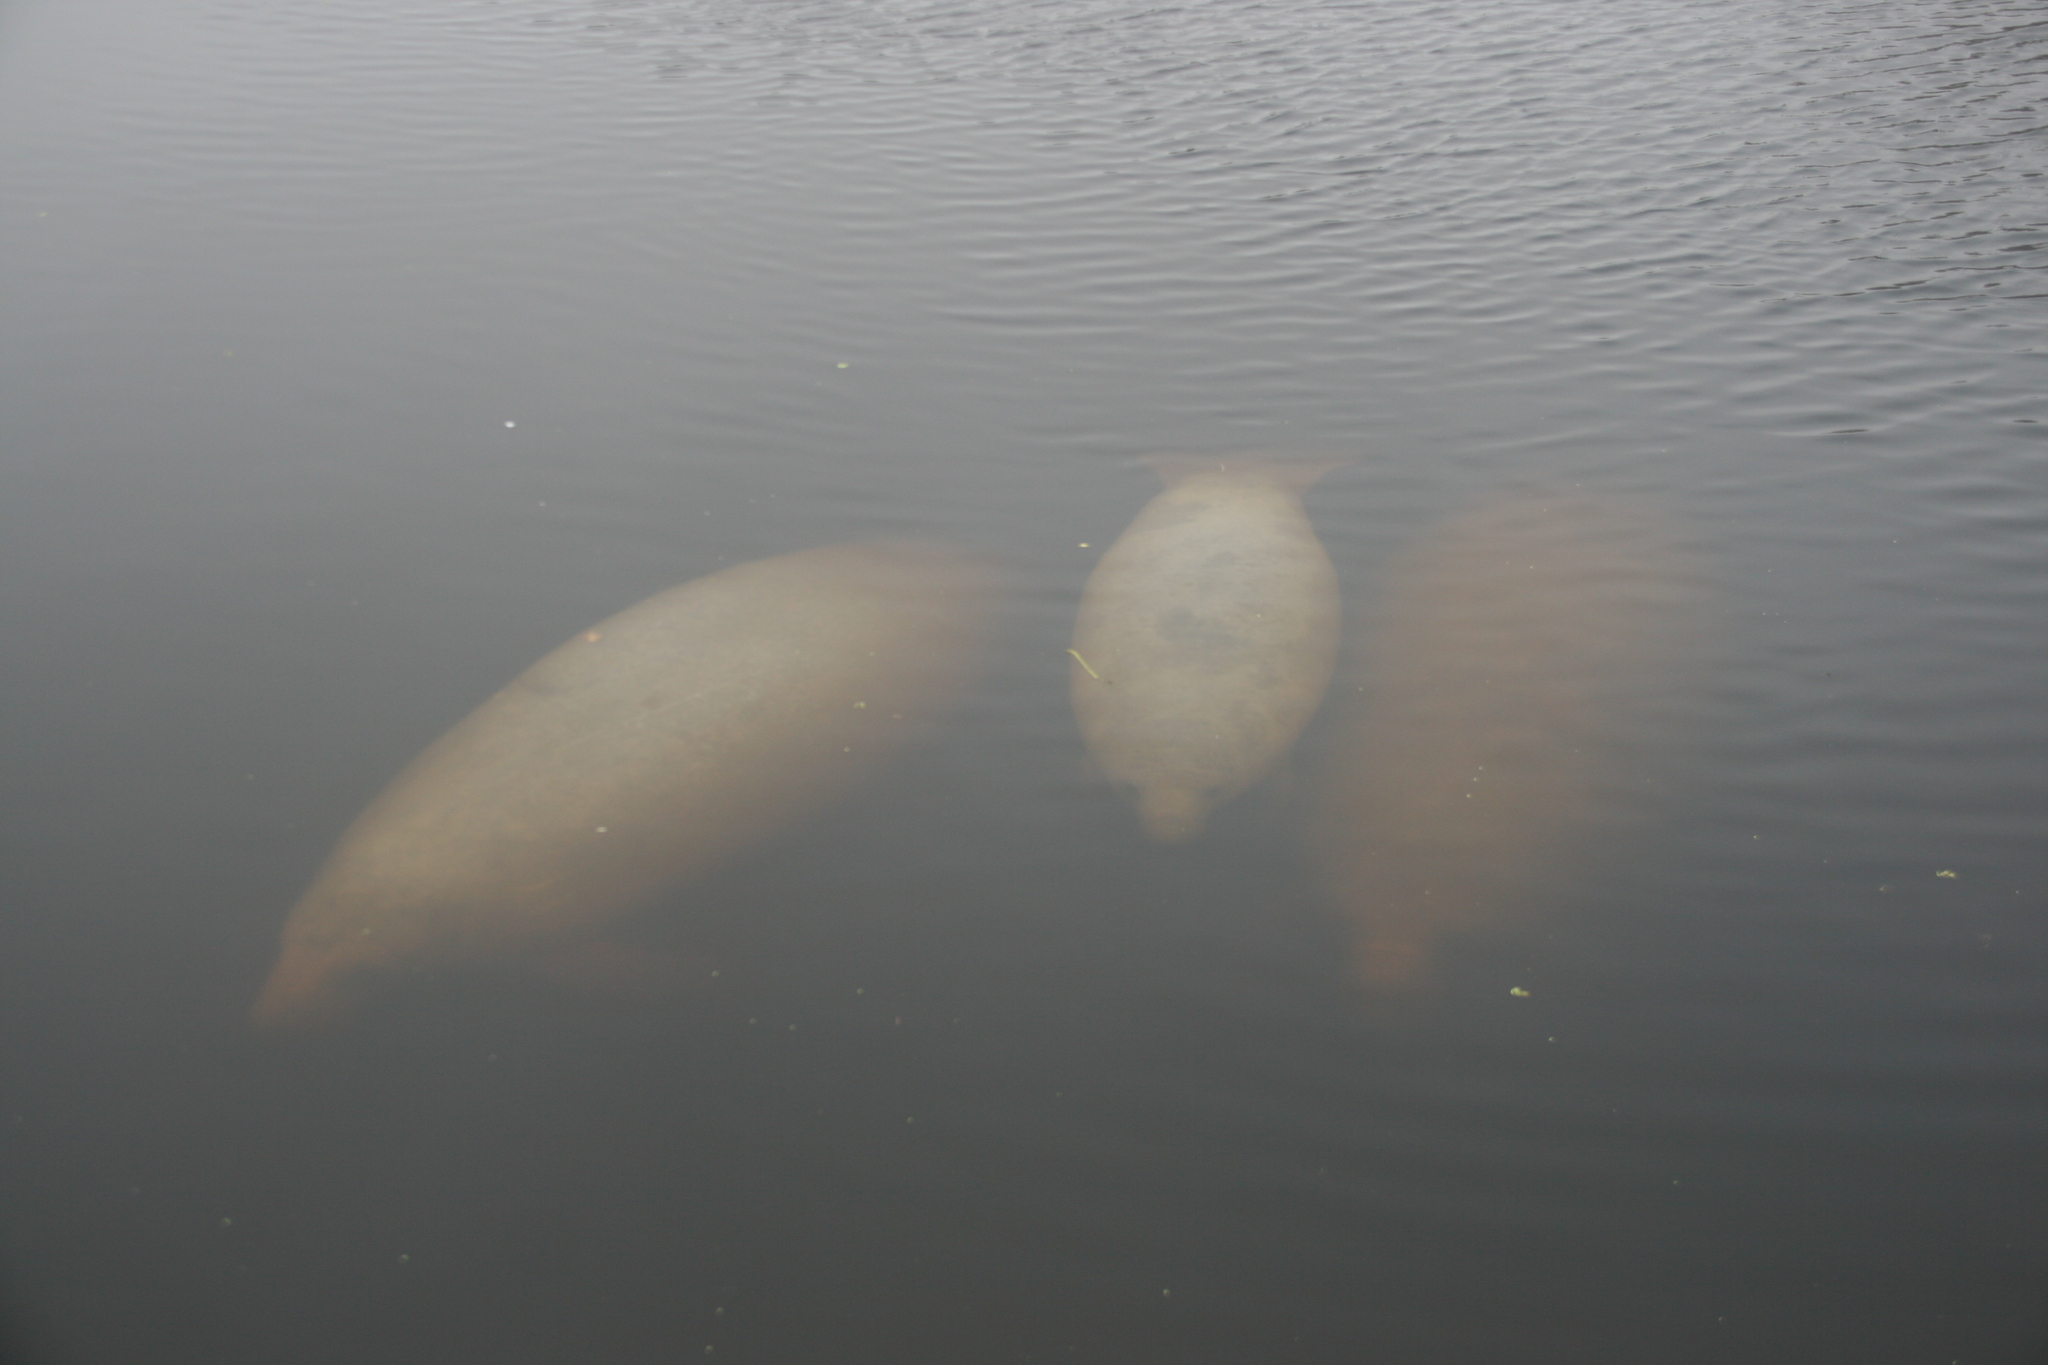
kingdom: Animalia
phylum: Chordata
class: Mammalia
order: Sirenia
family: Trichechidae
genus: Trichechus
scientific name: Trichechus manatus
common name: West indian manatee
